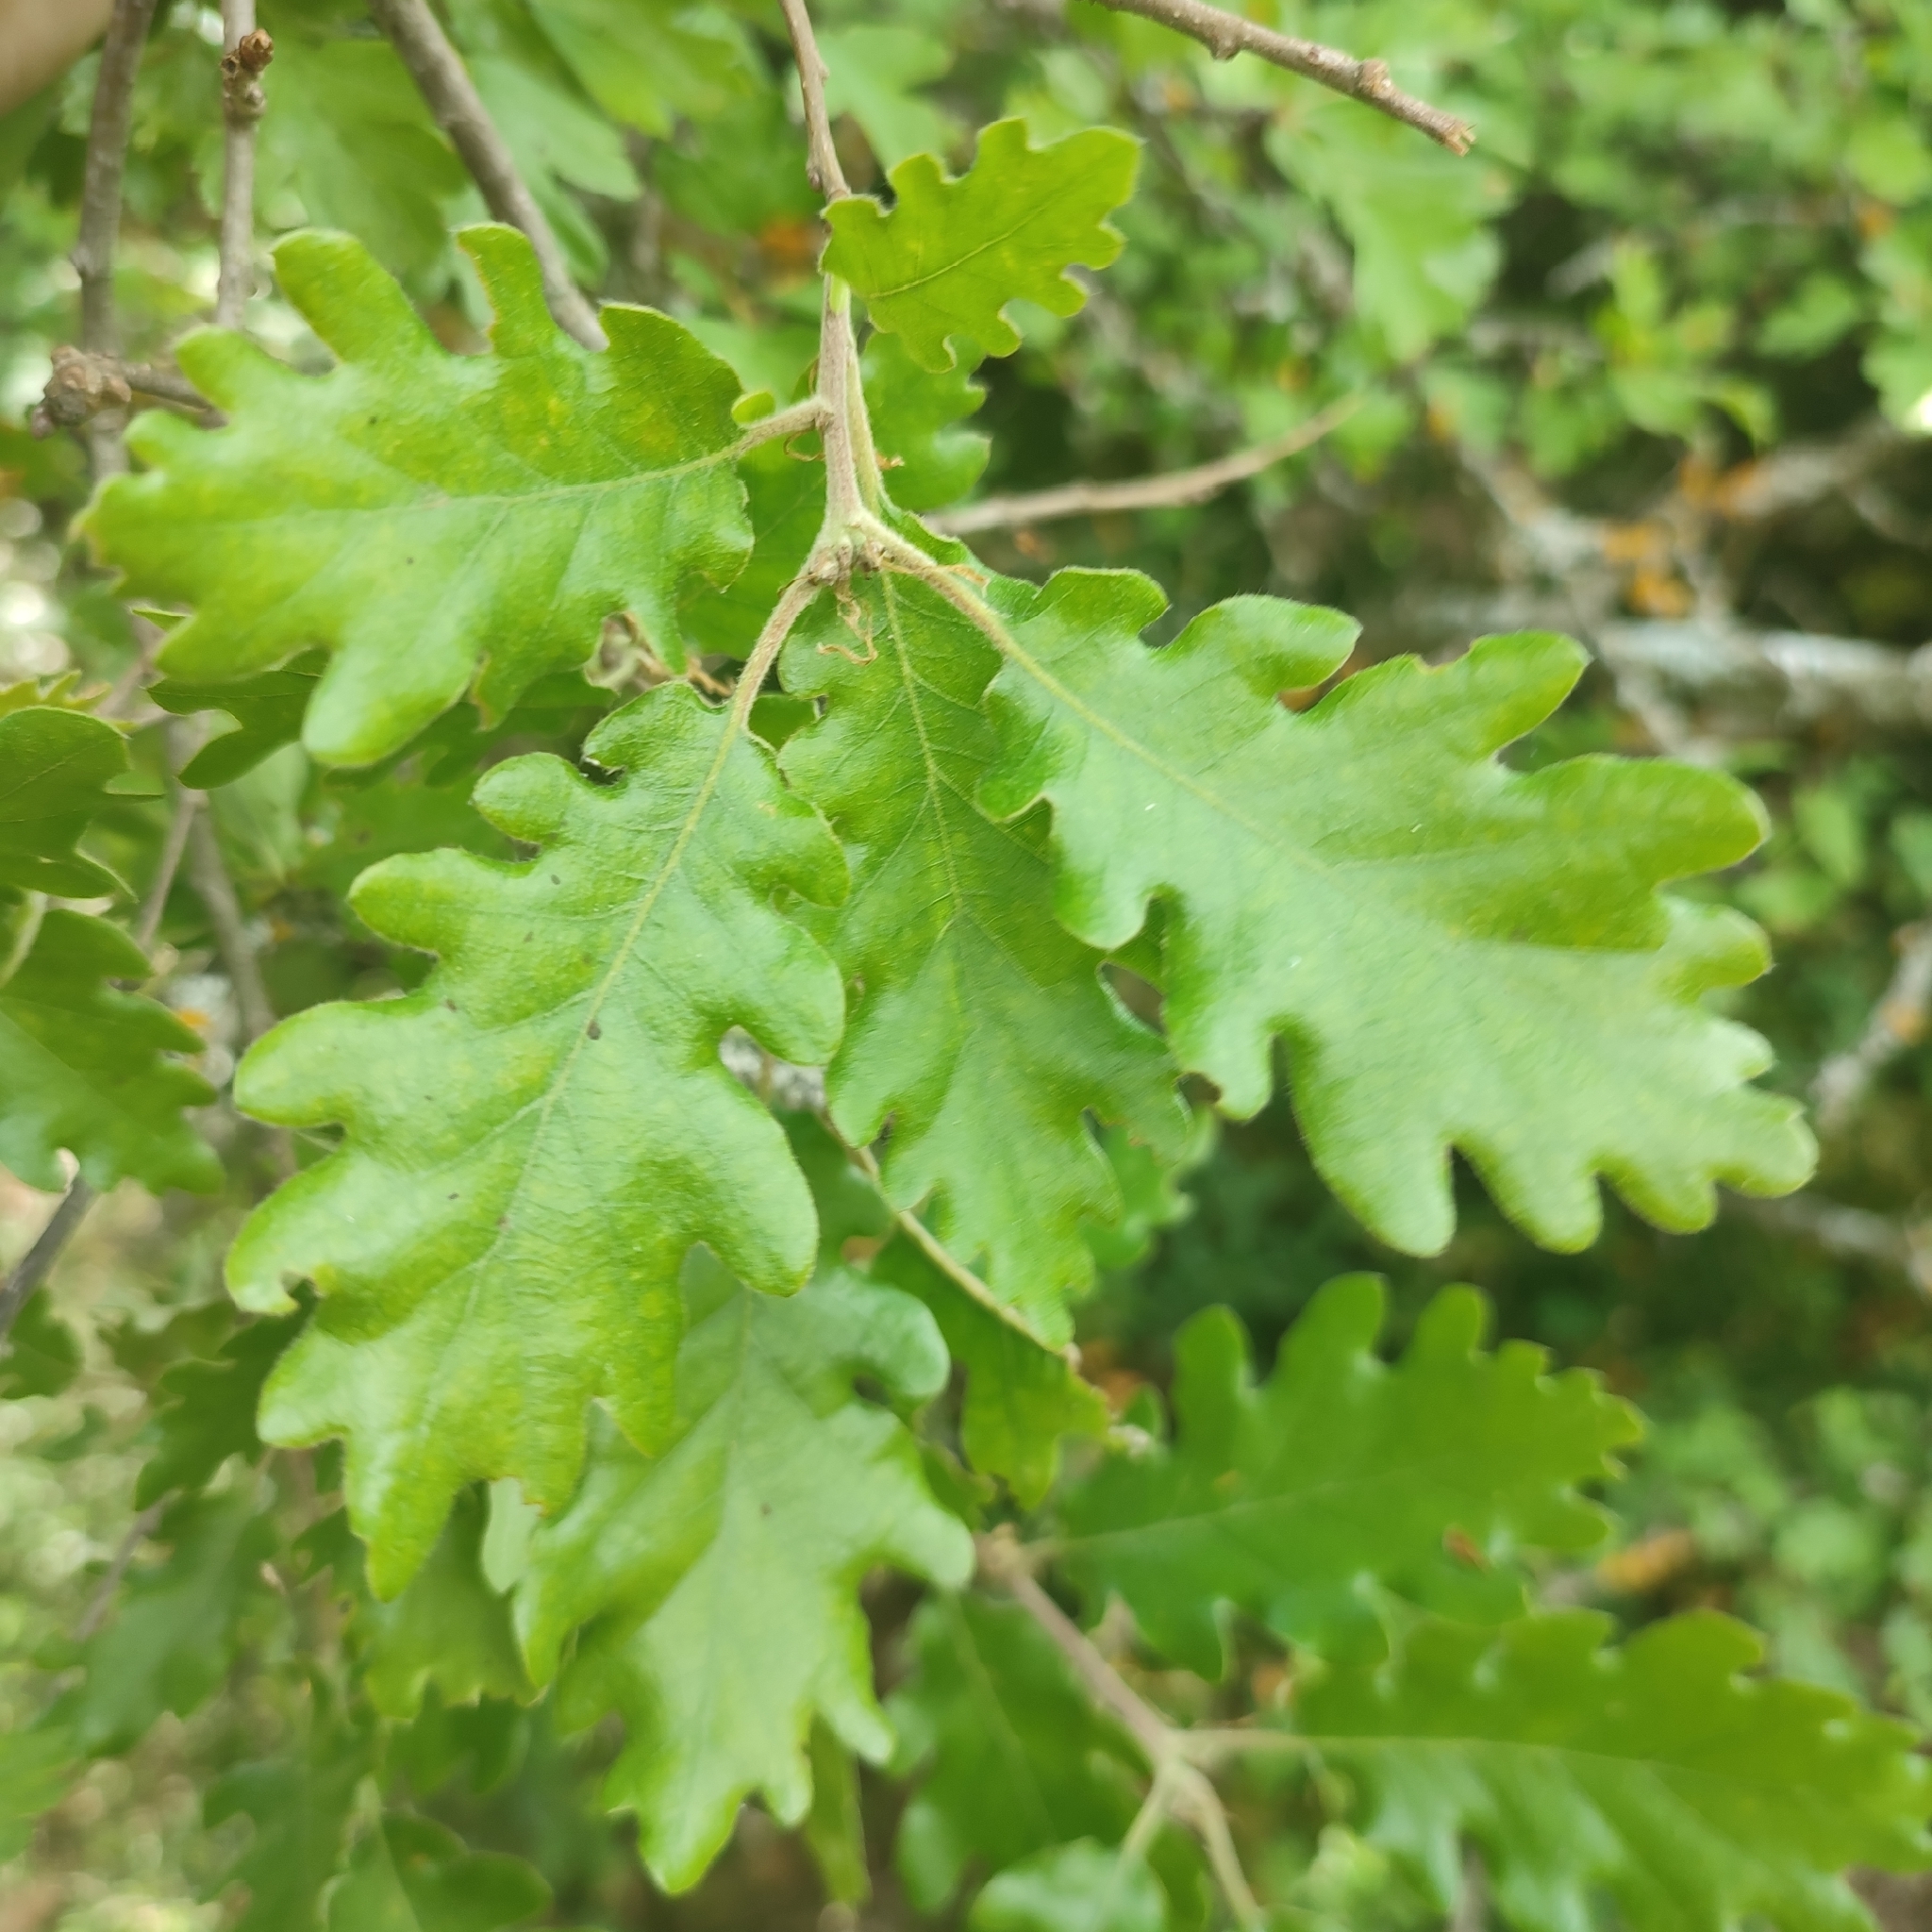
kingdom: Plantae
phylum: Tracheophyta
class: Magnoliopsida
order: Fagales
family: Fagaceae
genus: Quercus
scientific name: Quercus pubescens
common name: Downy oak
